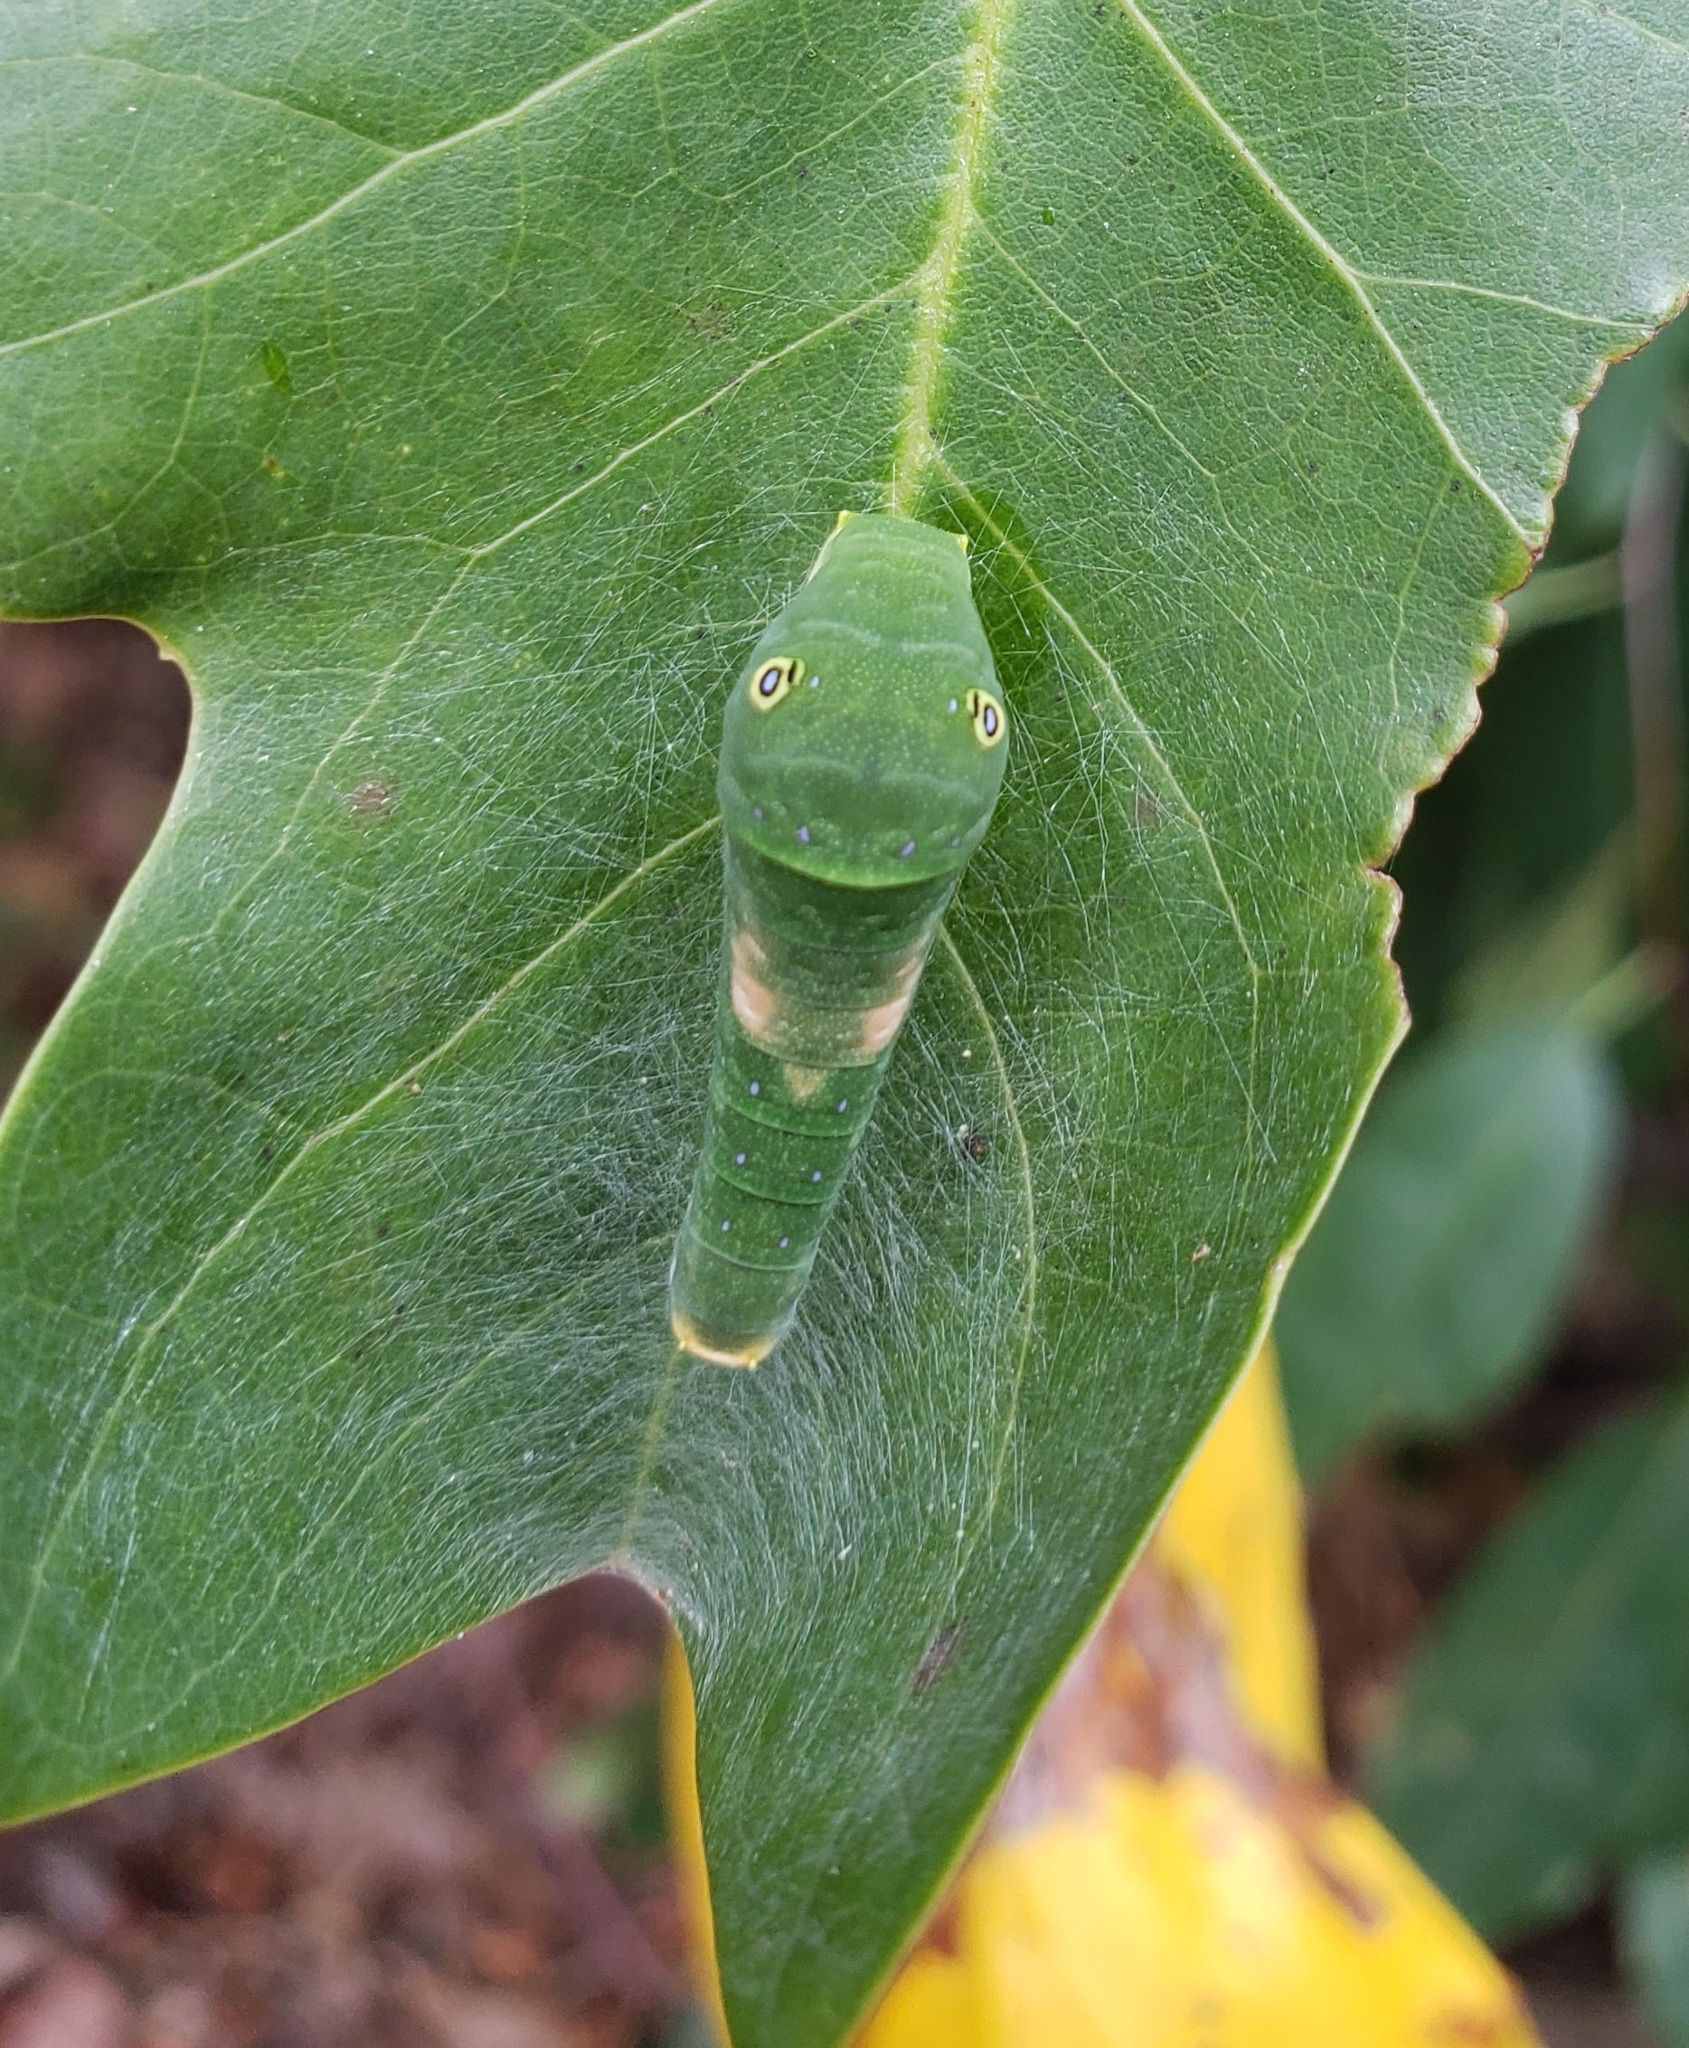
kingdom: Animalia
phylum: Arthropoda
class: Insecta
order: Lepidoptera
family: Papilionidae
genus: Papilio
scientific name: Papilio glaucus
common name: Tiger swallowtail
